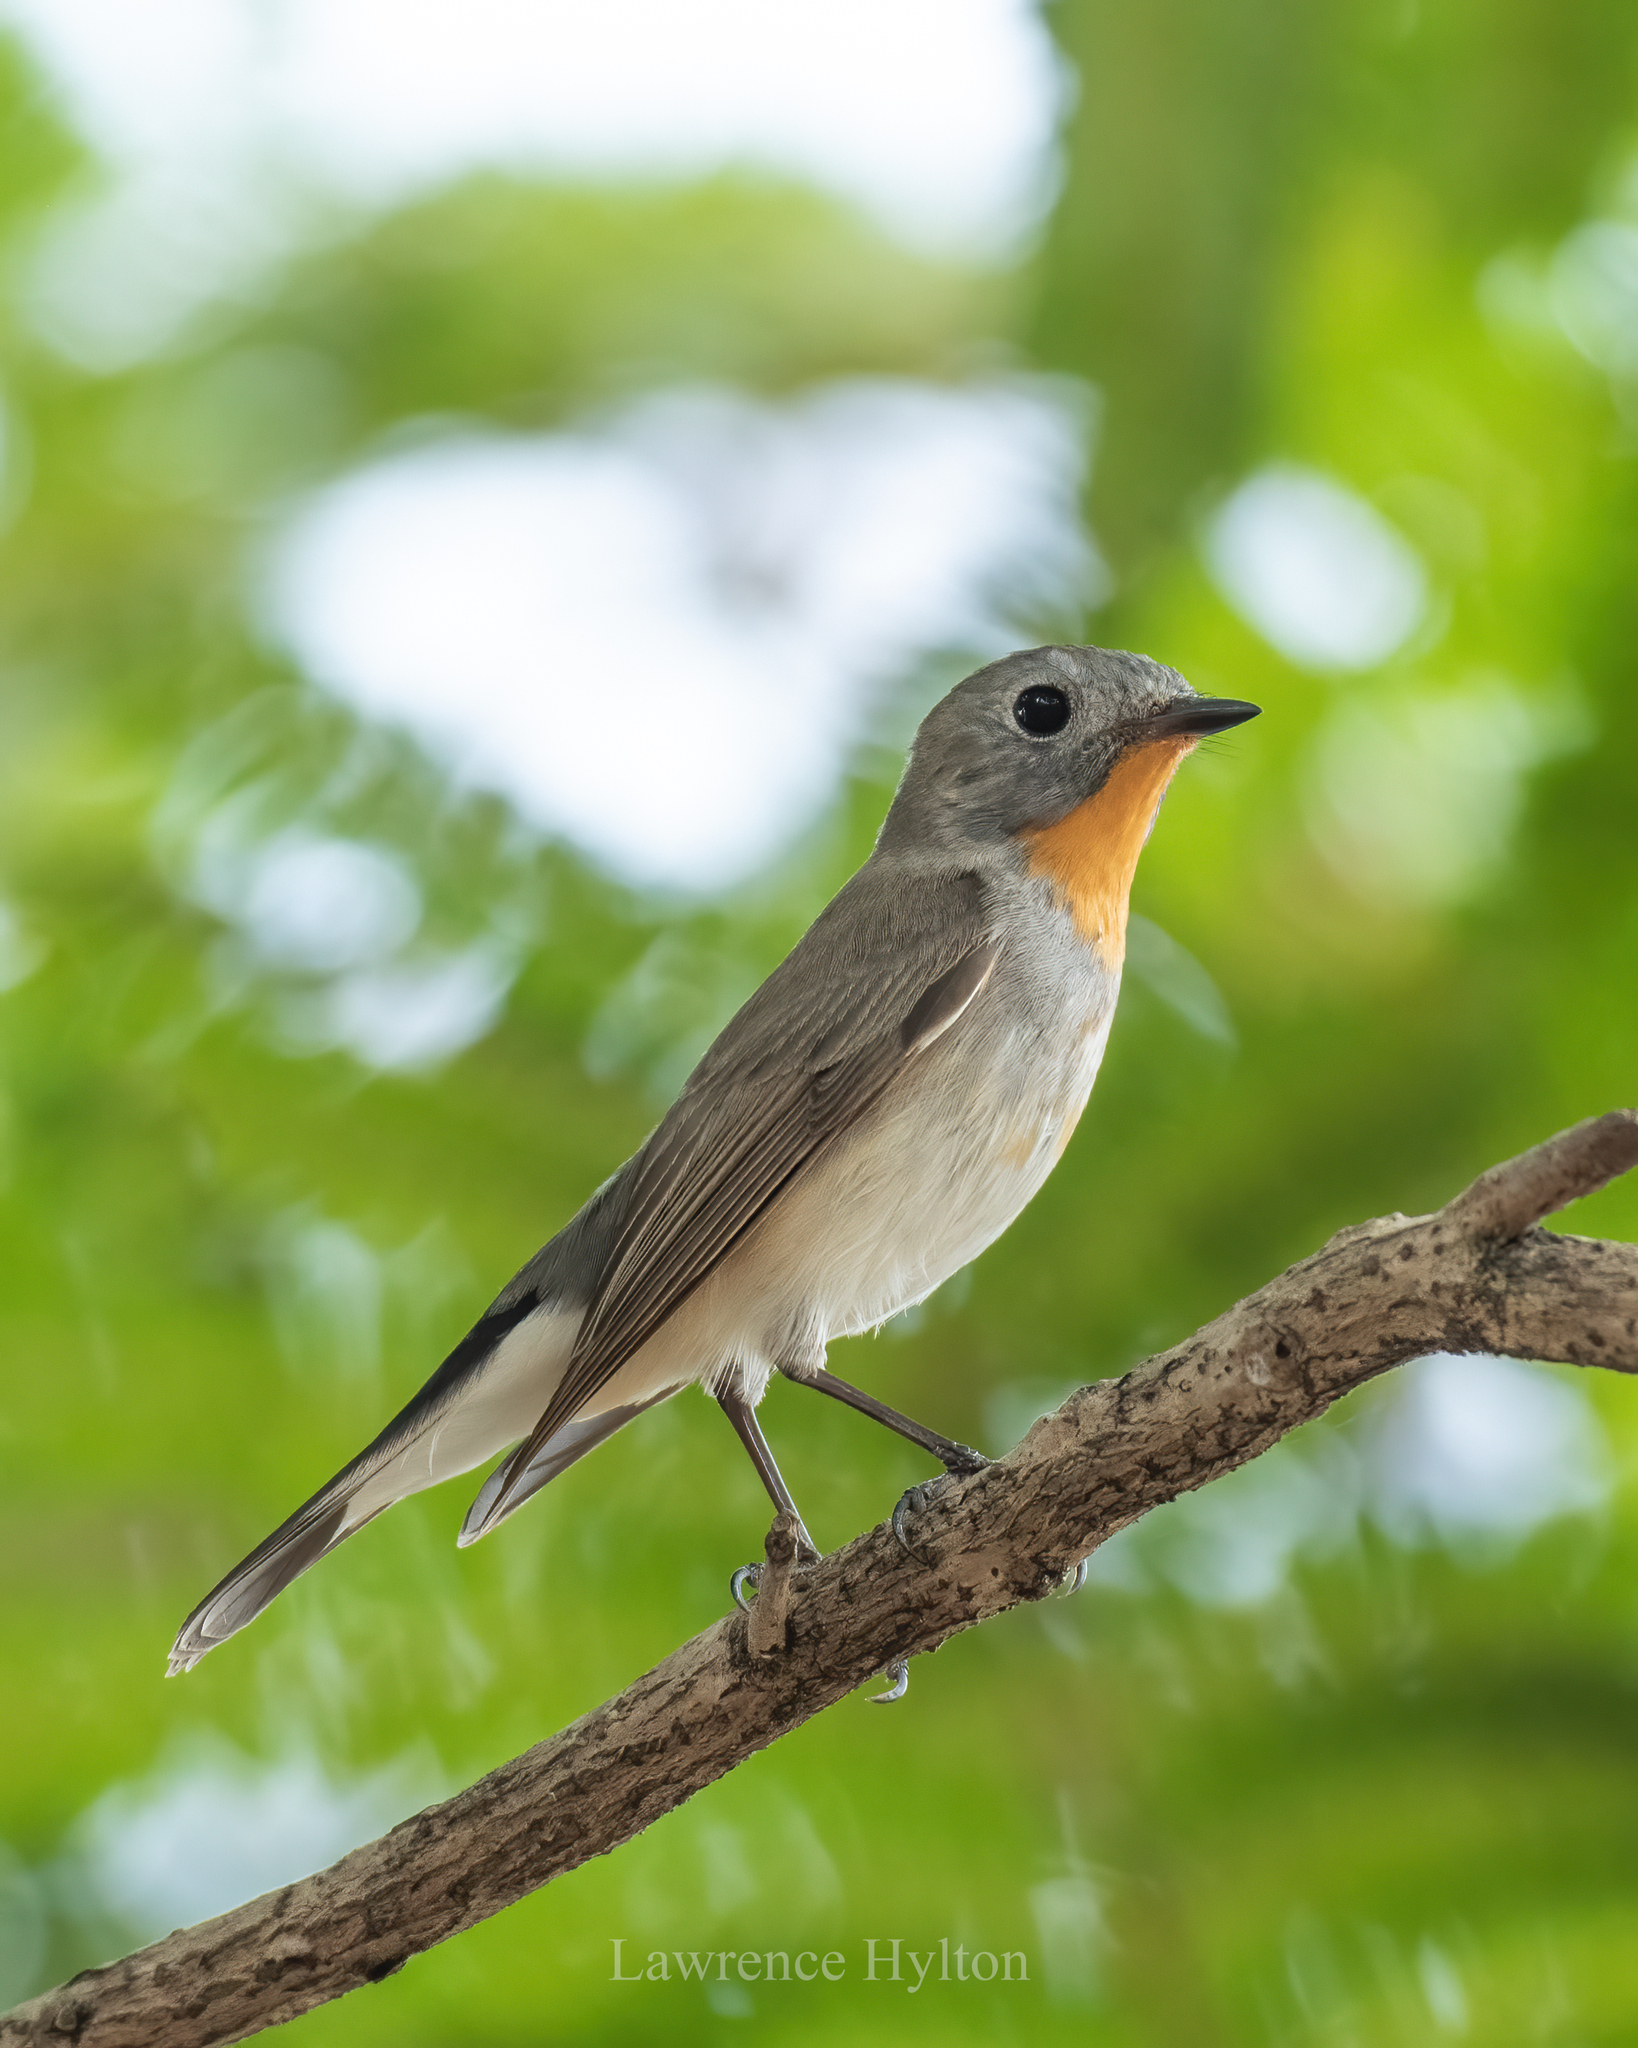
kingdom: Animalia
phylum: Chordata
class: Aves
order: Passeriformes
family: Muscicapidae
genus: Ficedula
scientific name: Ficedula albicilla
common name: Taiga flycatcher
